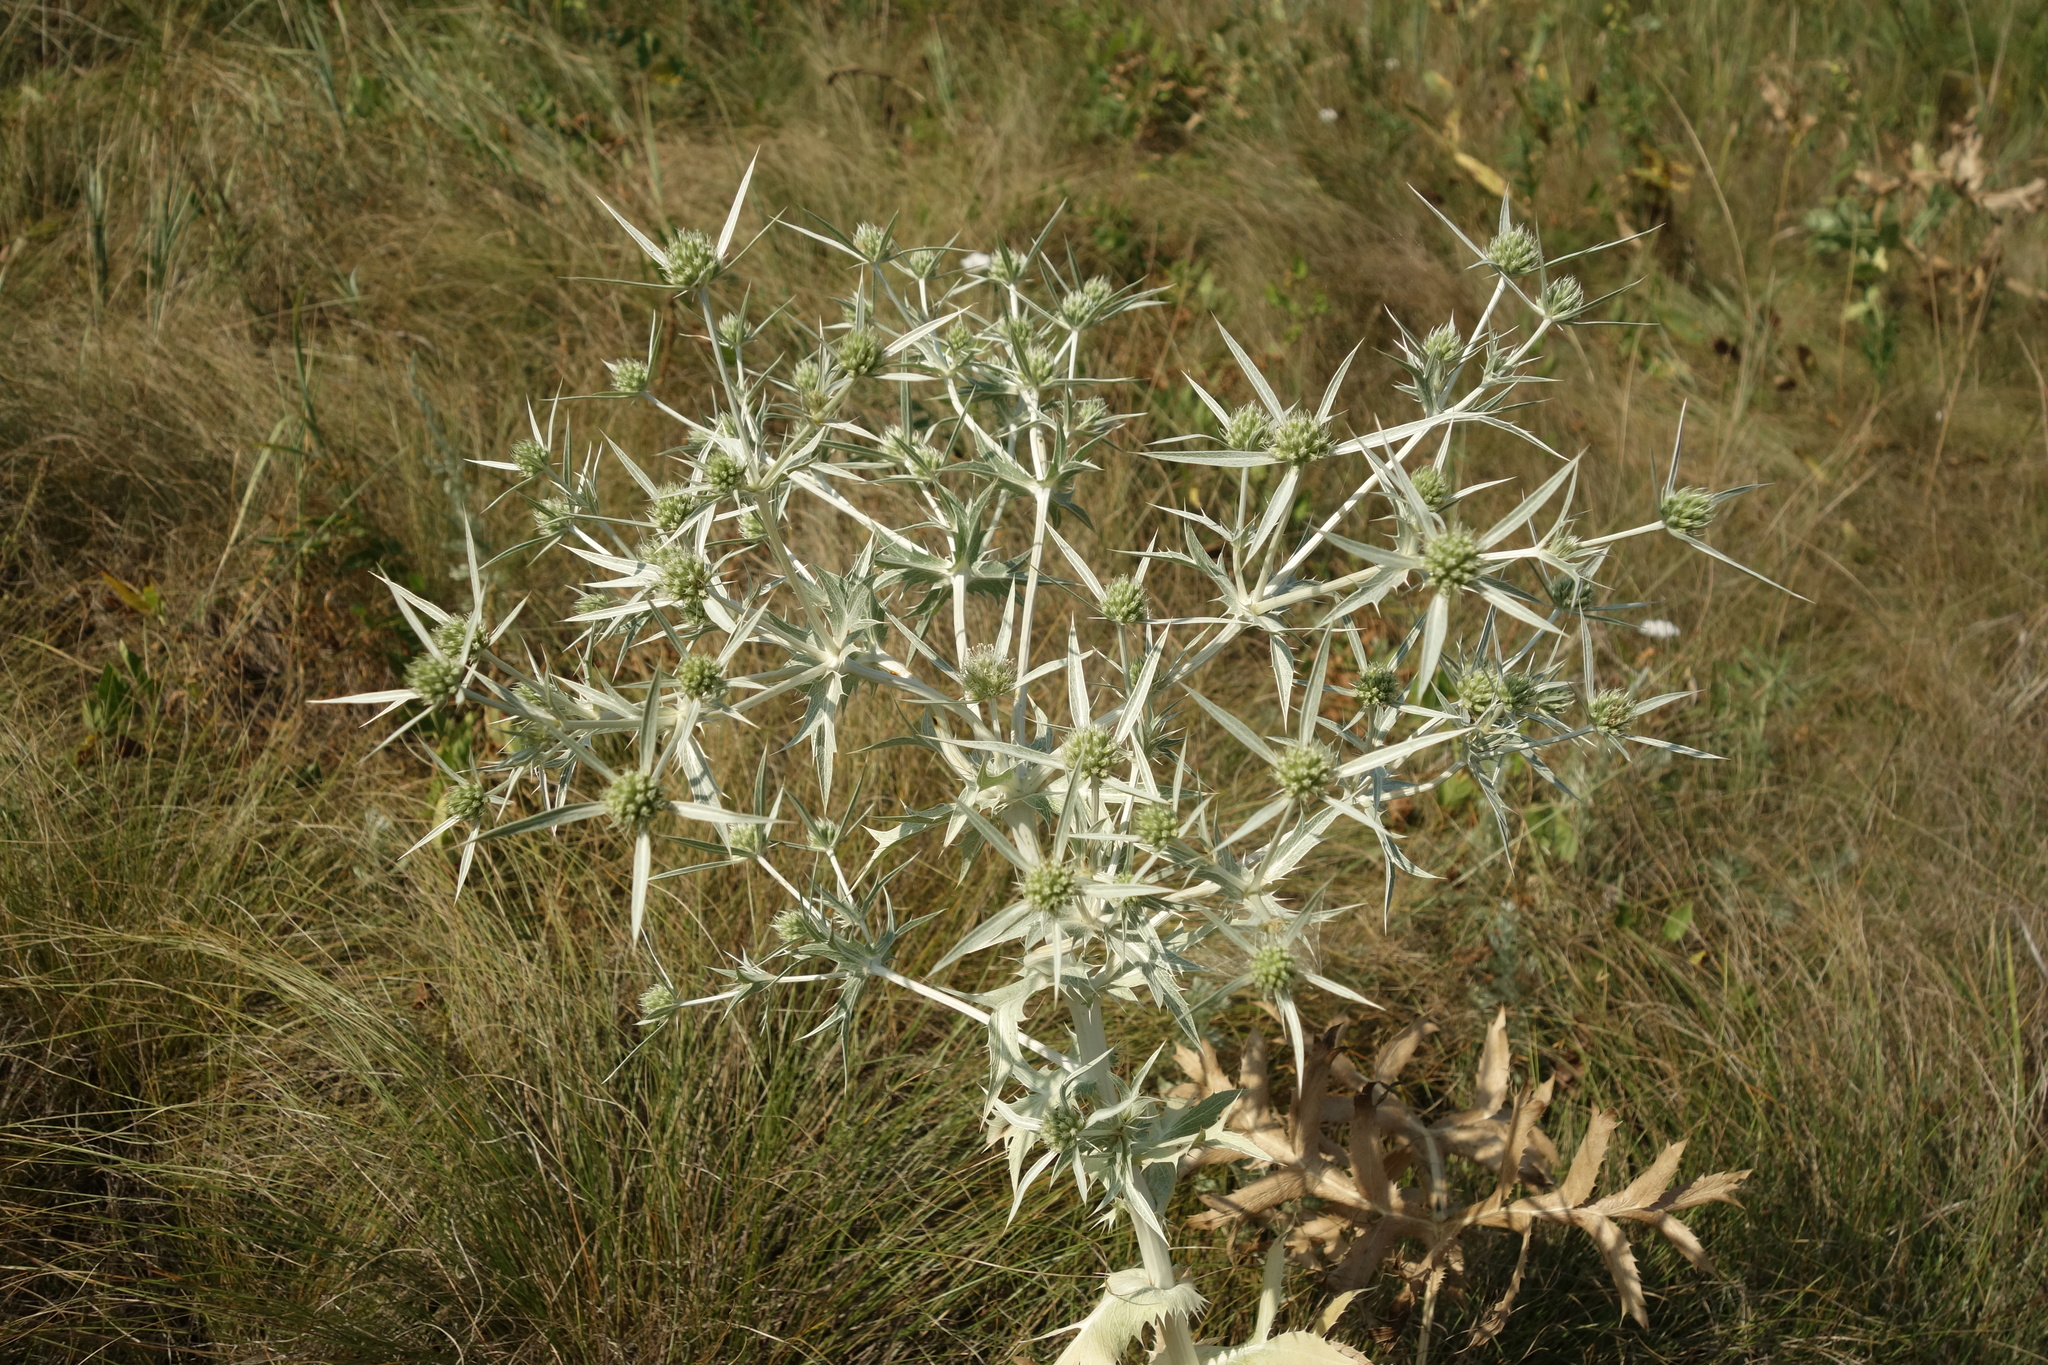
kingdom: Plantae
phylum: Tracheophyta
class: Magnoliopsida
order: Apiales
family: Apiaceae
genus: Eryngium
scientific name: Eryngium campestre
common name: Field eryngo
